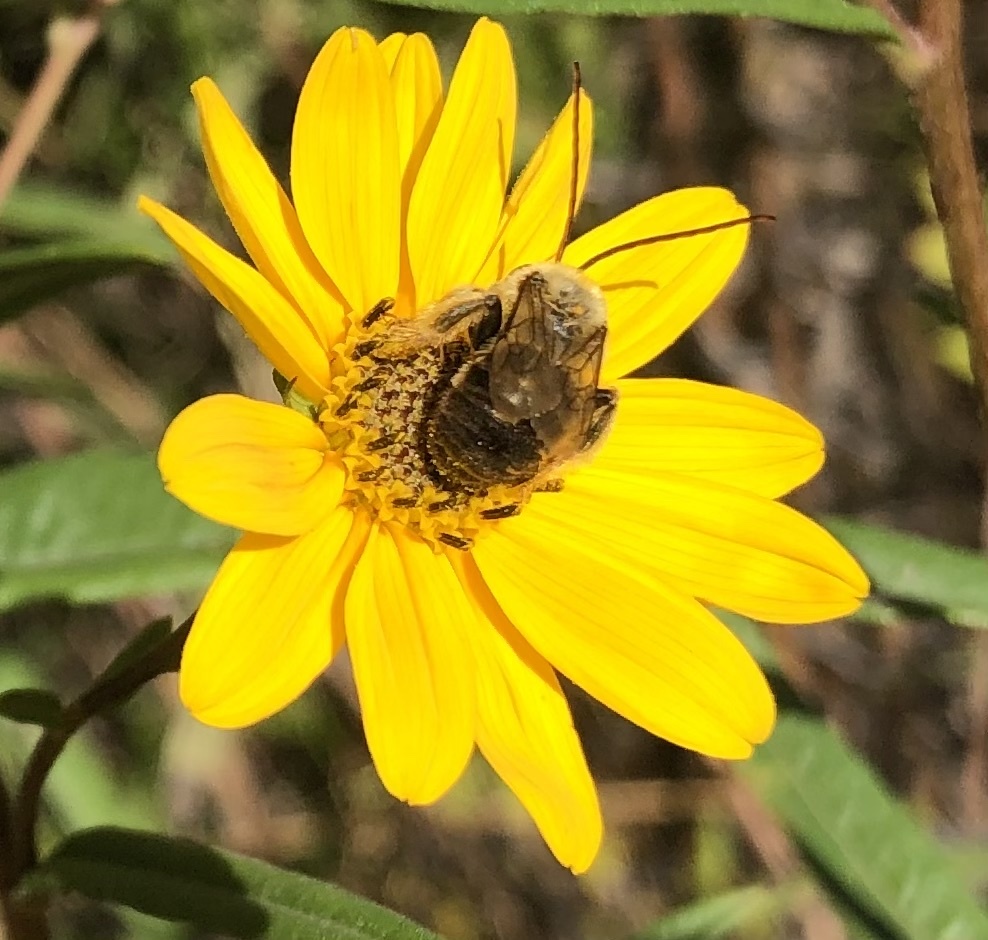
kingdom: Animalia
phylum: Arthropoda
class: Insecta
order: Hymenoptera
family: Apidae
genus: Melissodes
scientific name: Melissodes dentiventris
